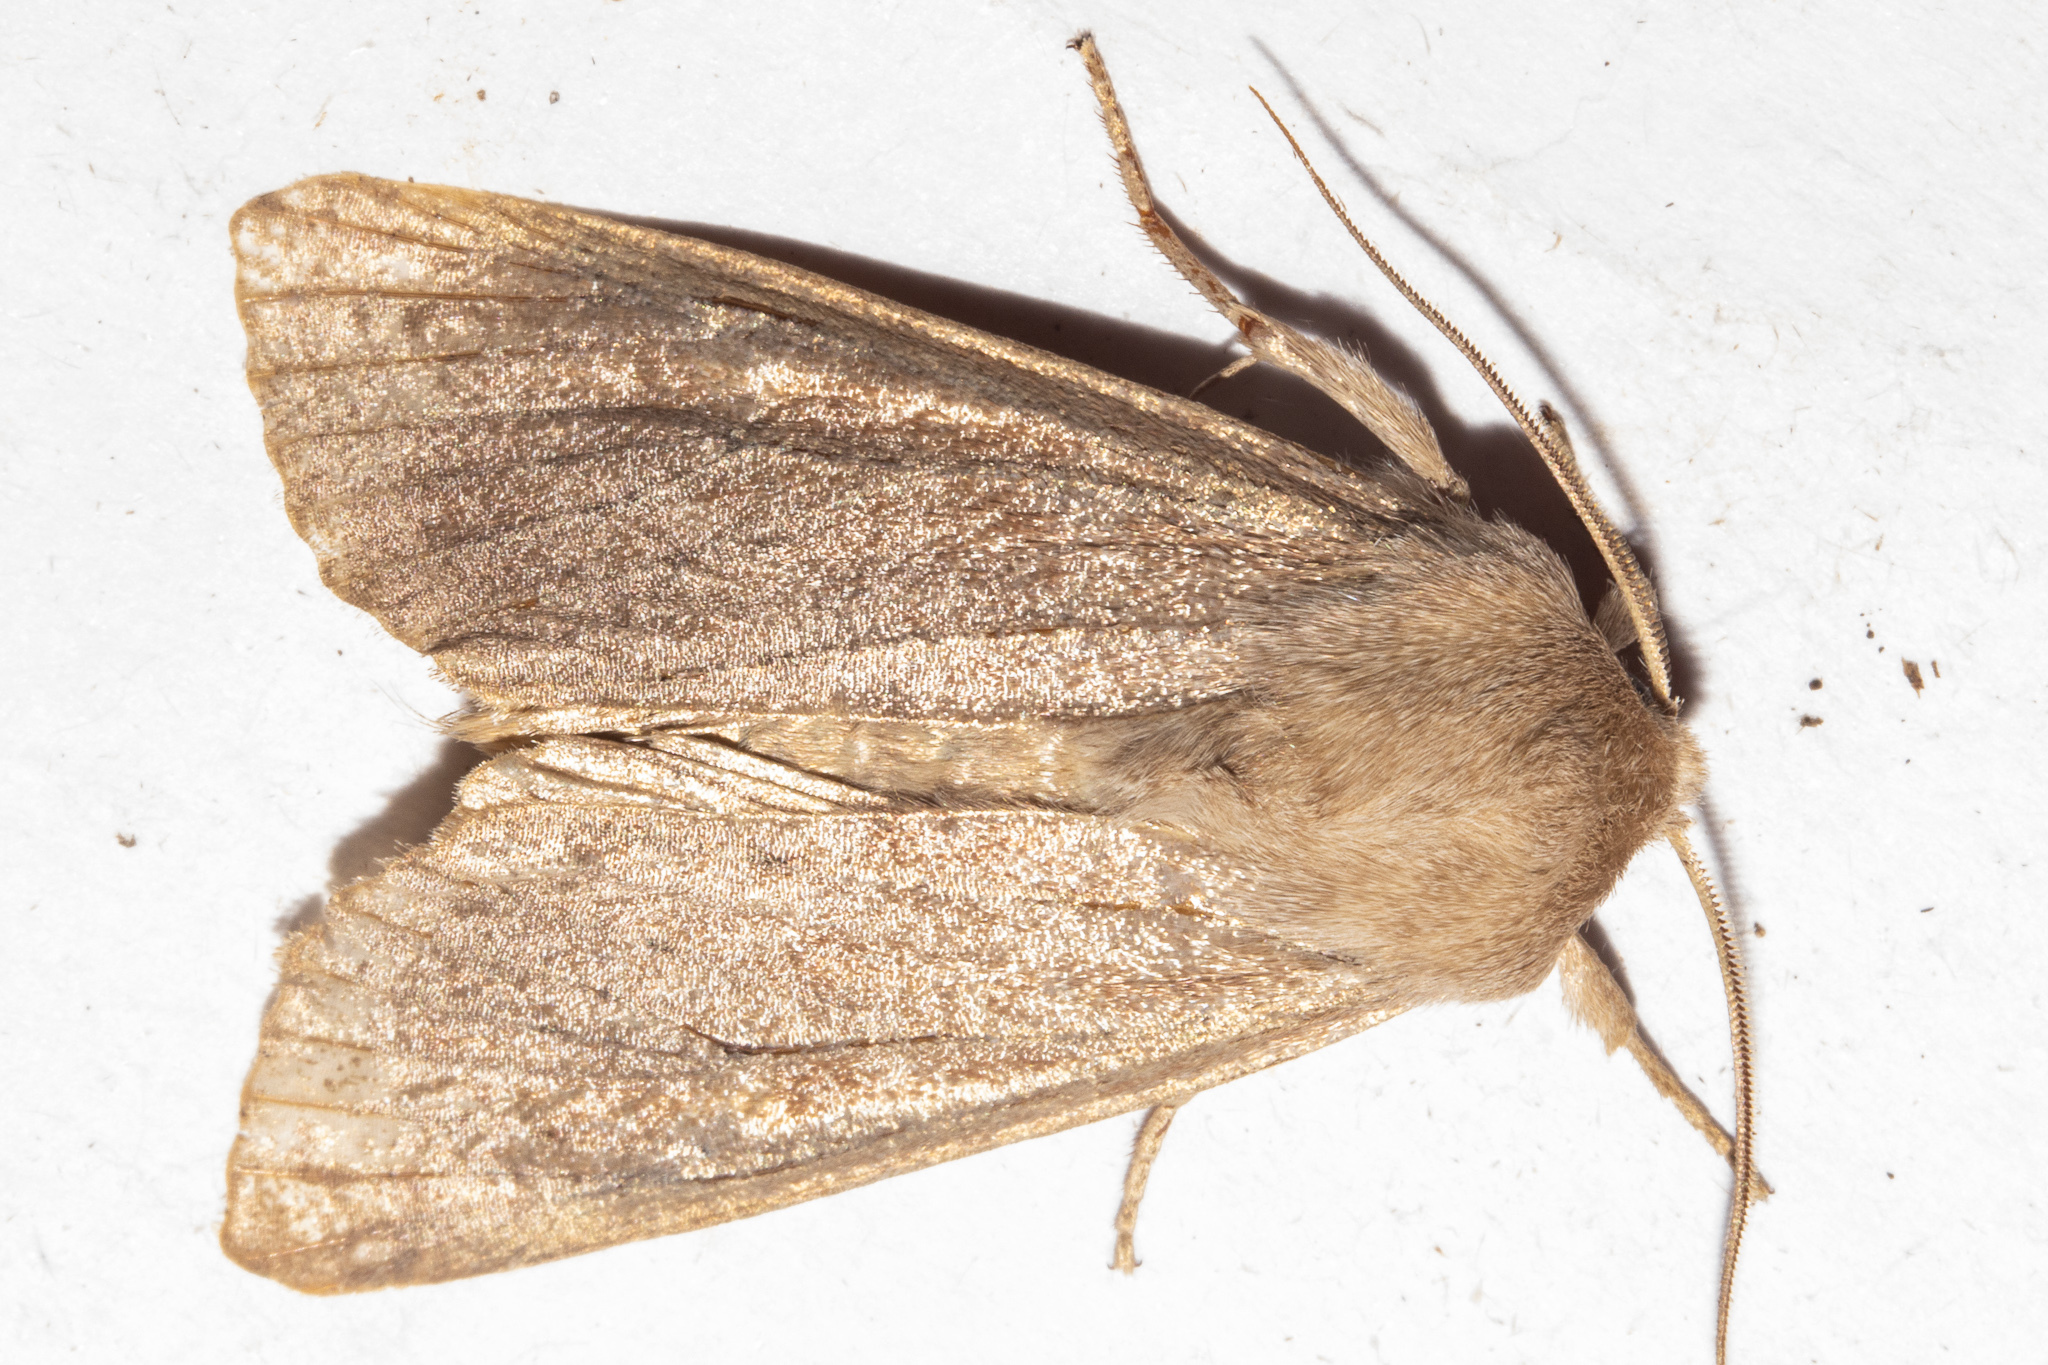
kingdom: Animalia
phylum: Arthropoda
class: Insecta
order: Lepidoptera
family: Noctuidae
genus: Ichneutica
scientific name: Ichneutica nullifera
